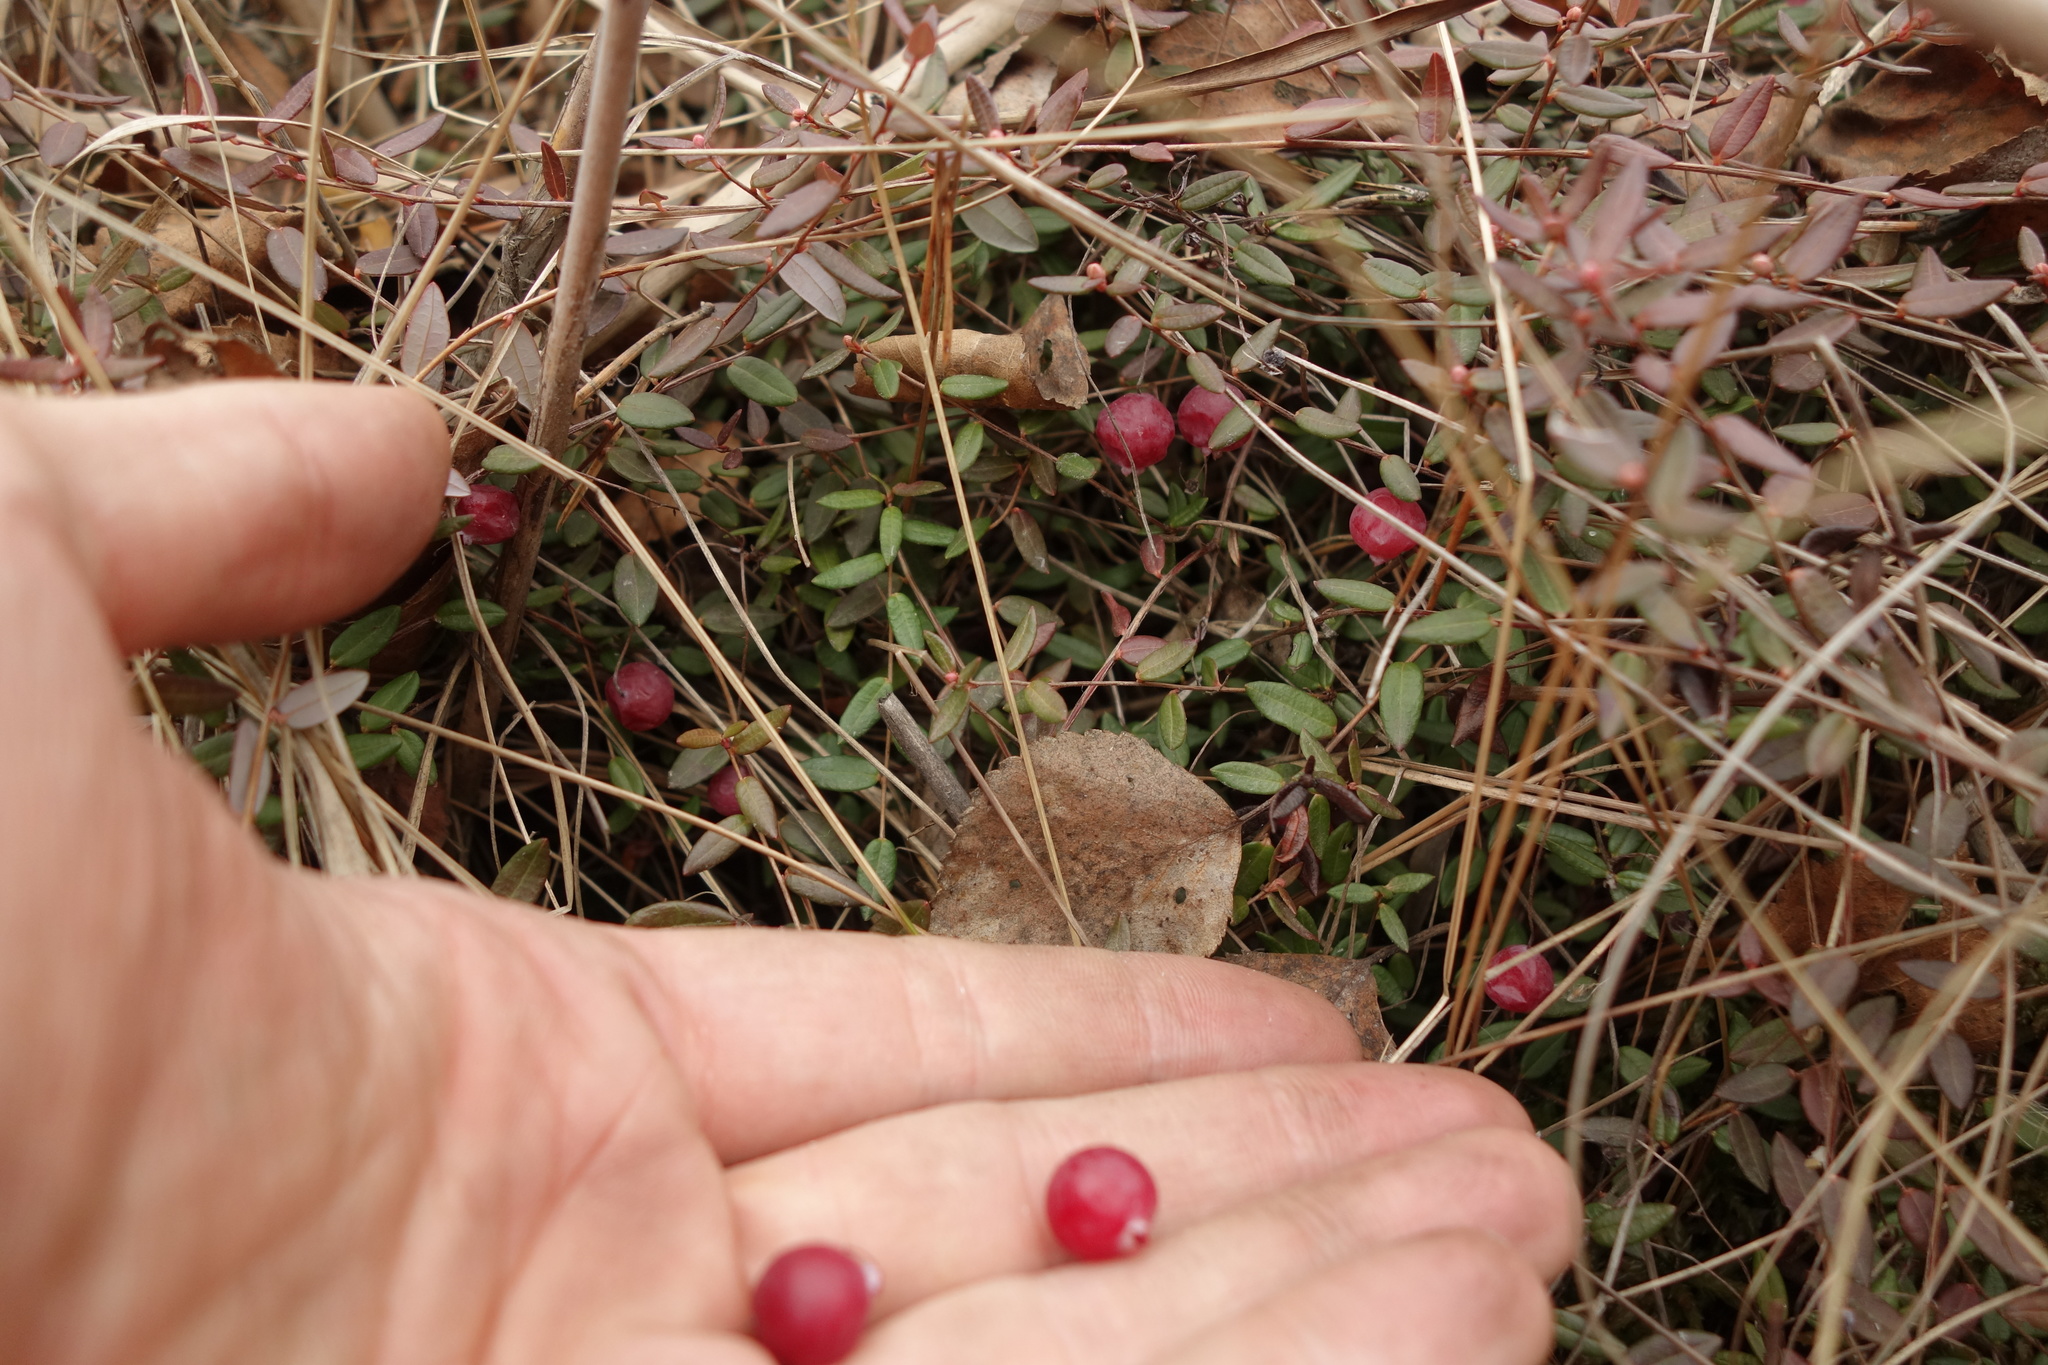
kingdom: Plantae
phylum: Tracheophyta
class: Magnoliopsida
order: Ericales
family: Ericaceae
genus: Vaccinium
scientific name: Vaccinium oxycoccos
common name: Cranberry
